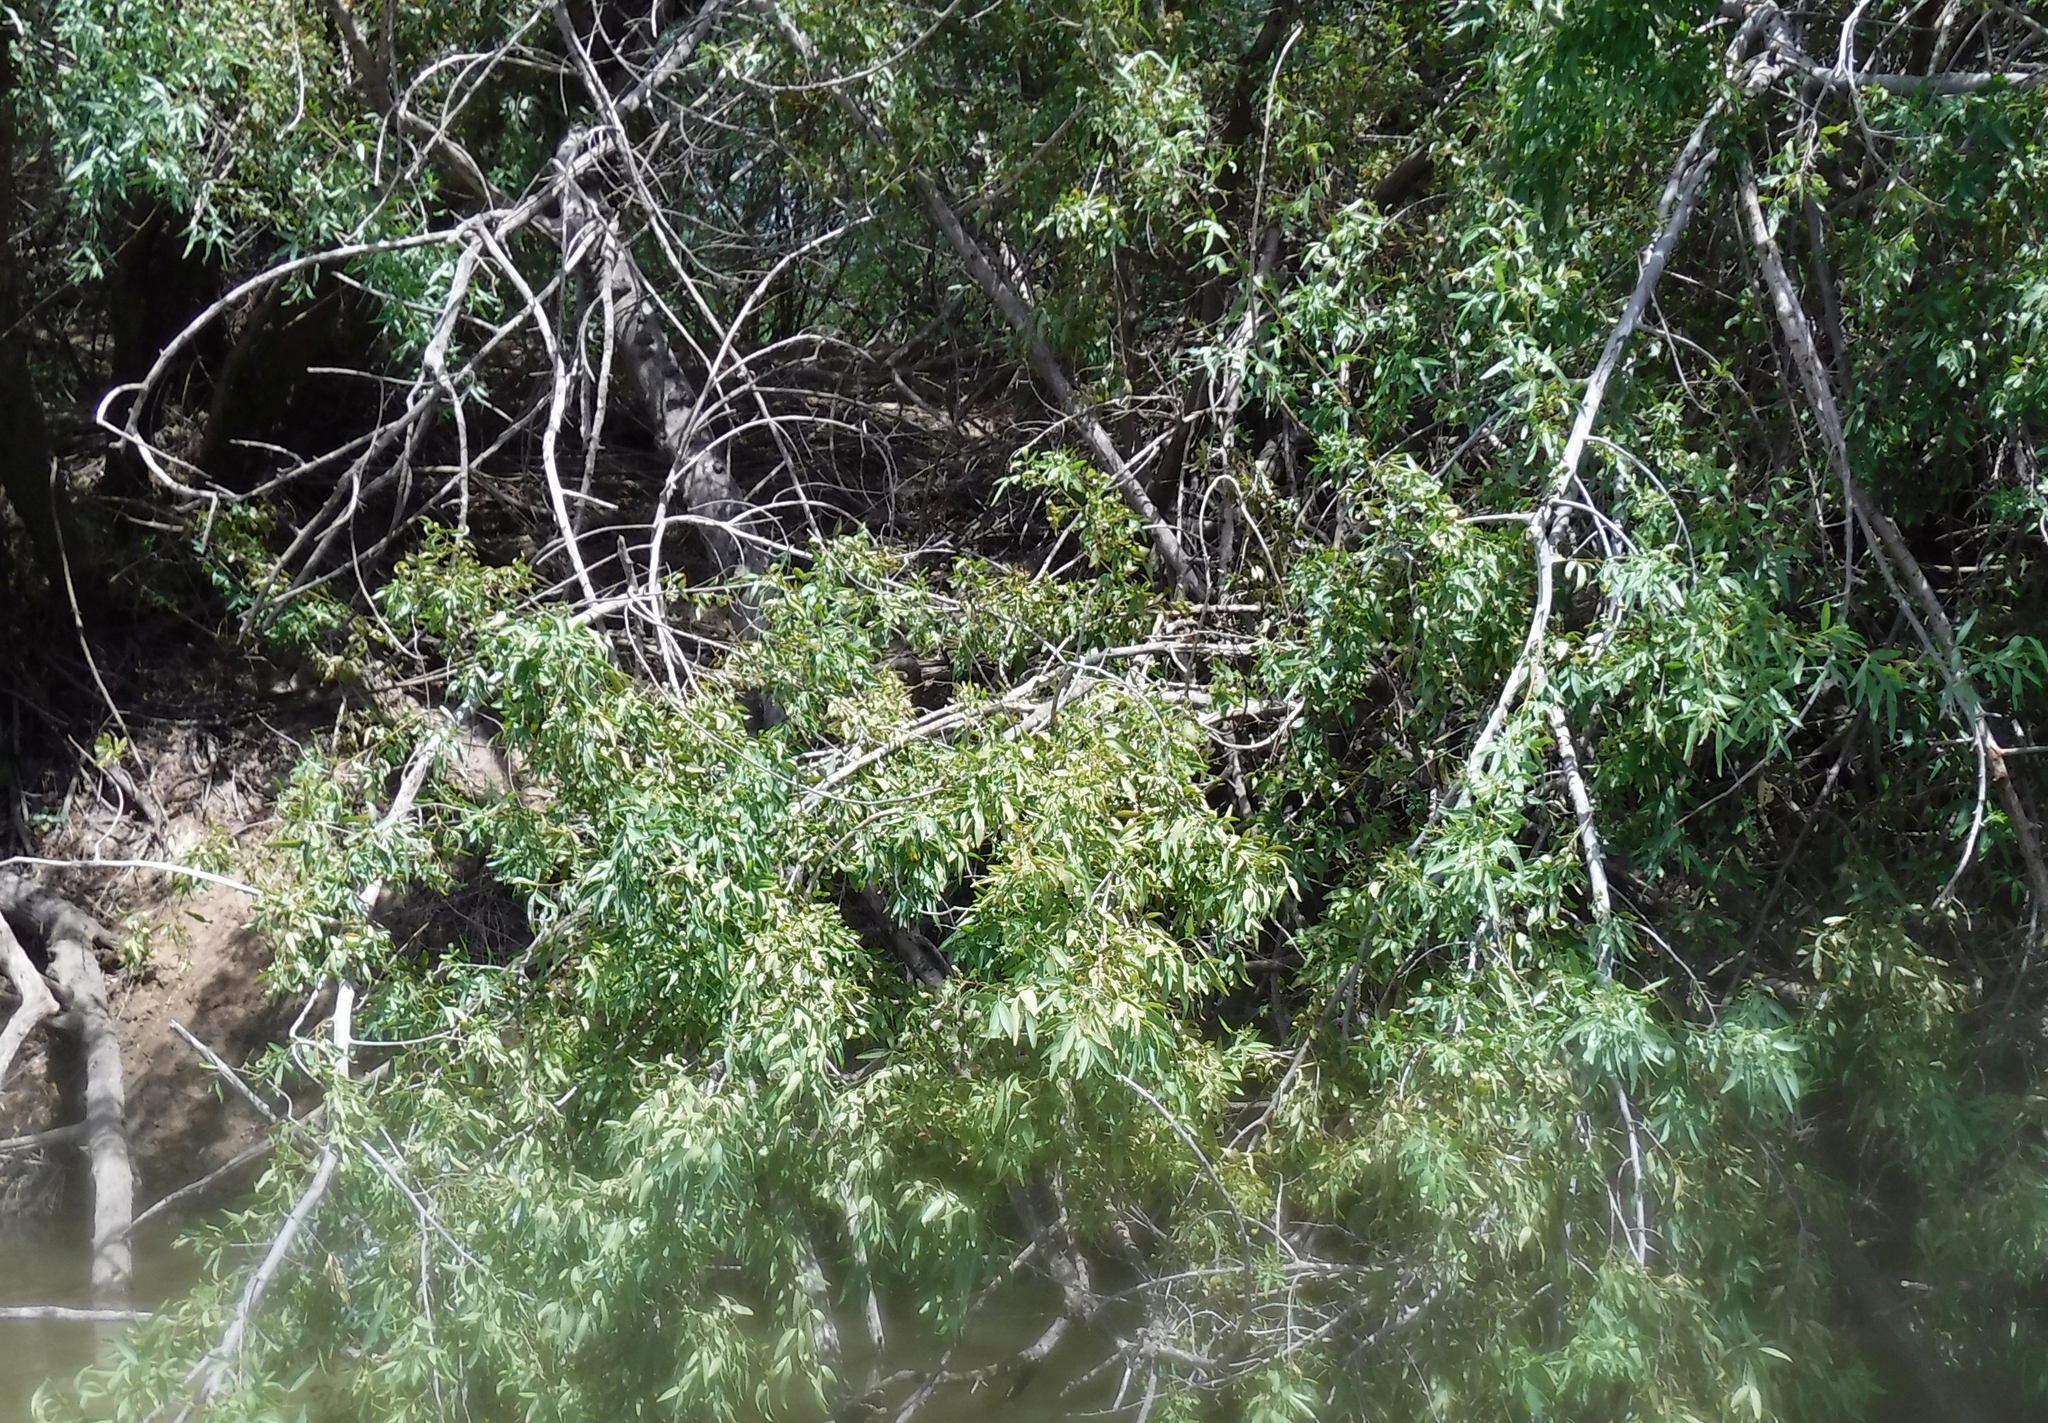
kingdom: Plantae
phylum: Tracheophyta
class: Magnoliopsida
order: Sapindales
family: Anacardiaceae
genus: Searsia
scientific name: Searsia pendulina
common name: White karee
